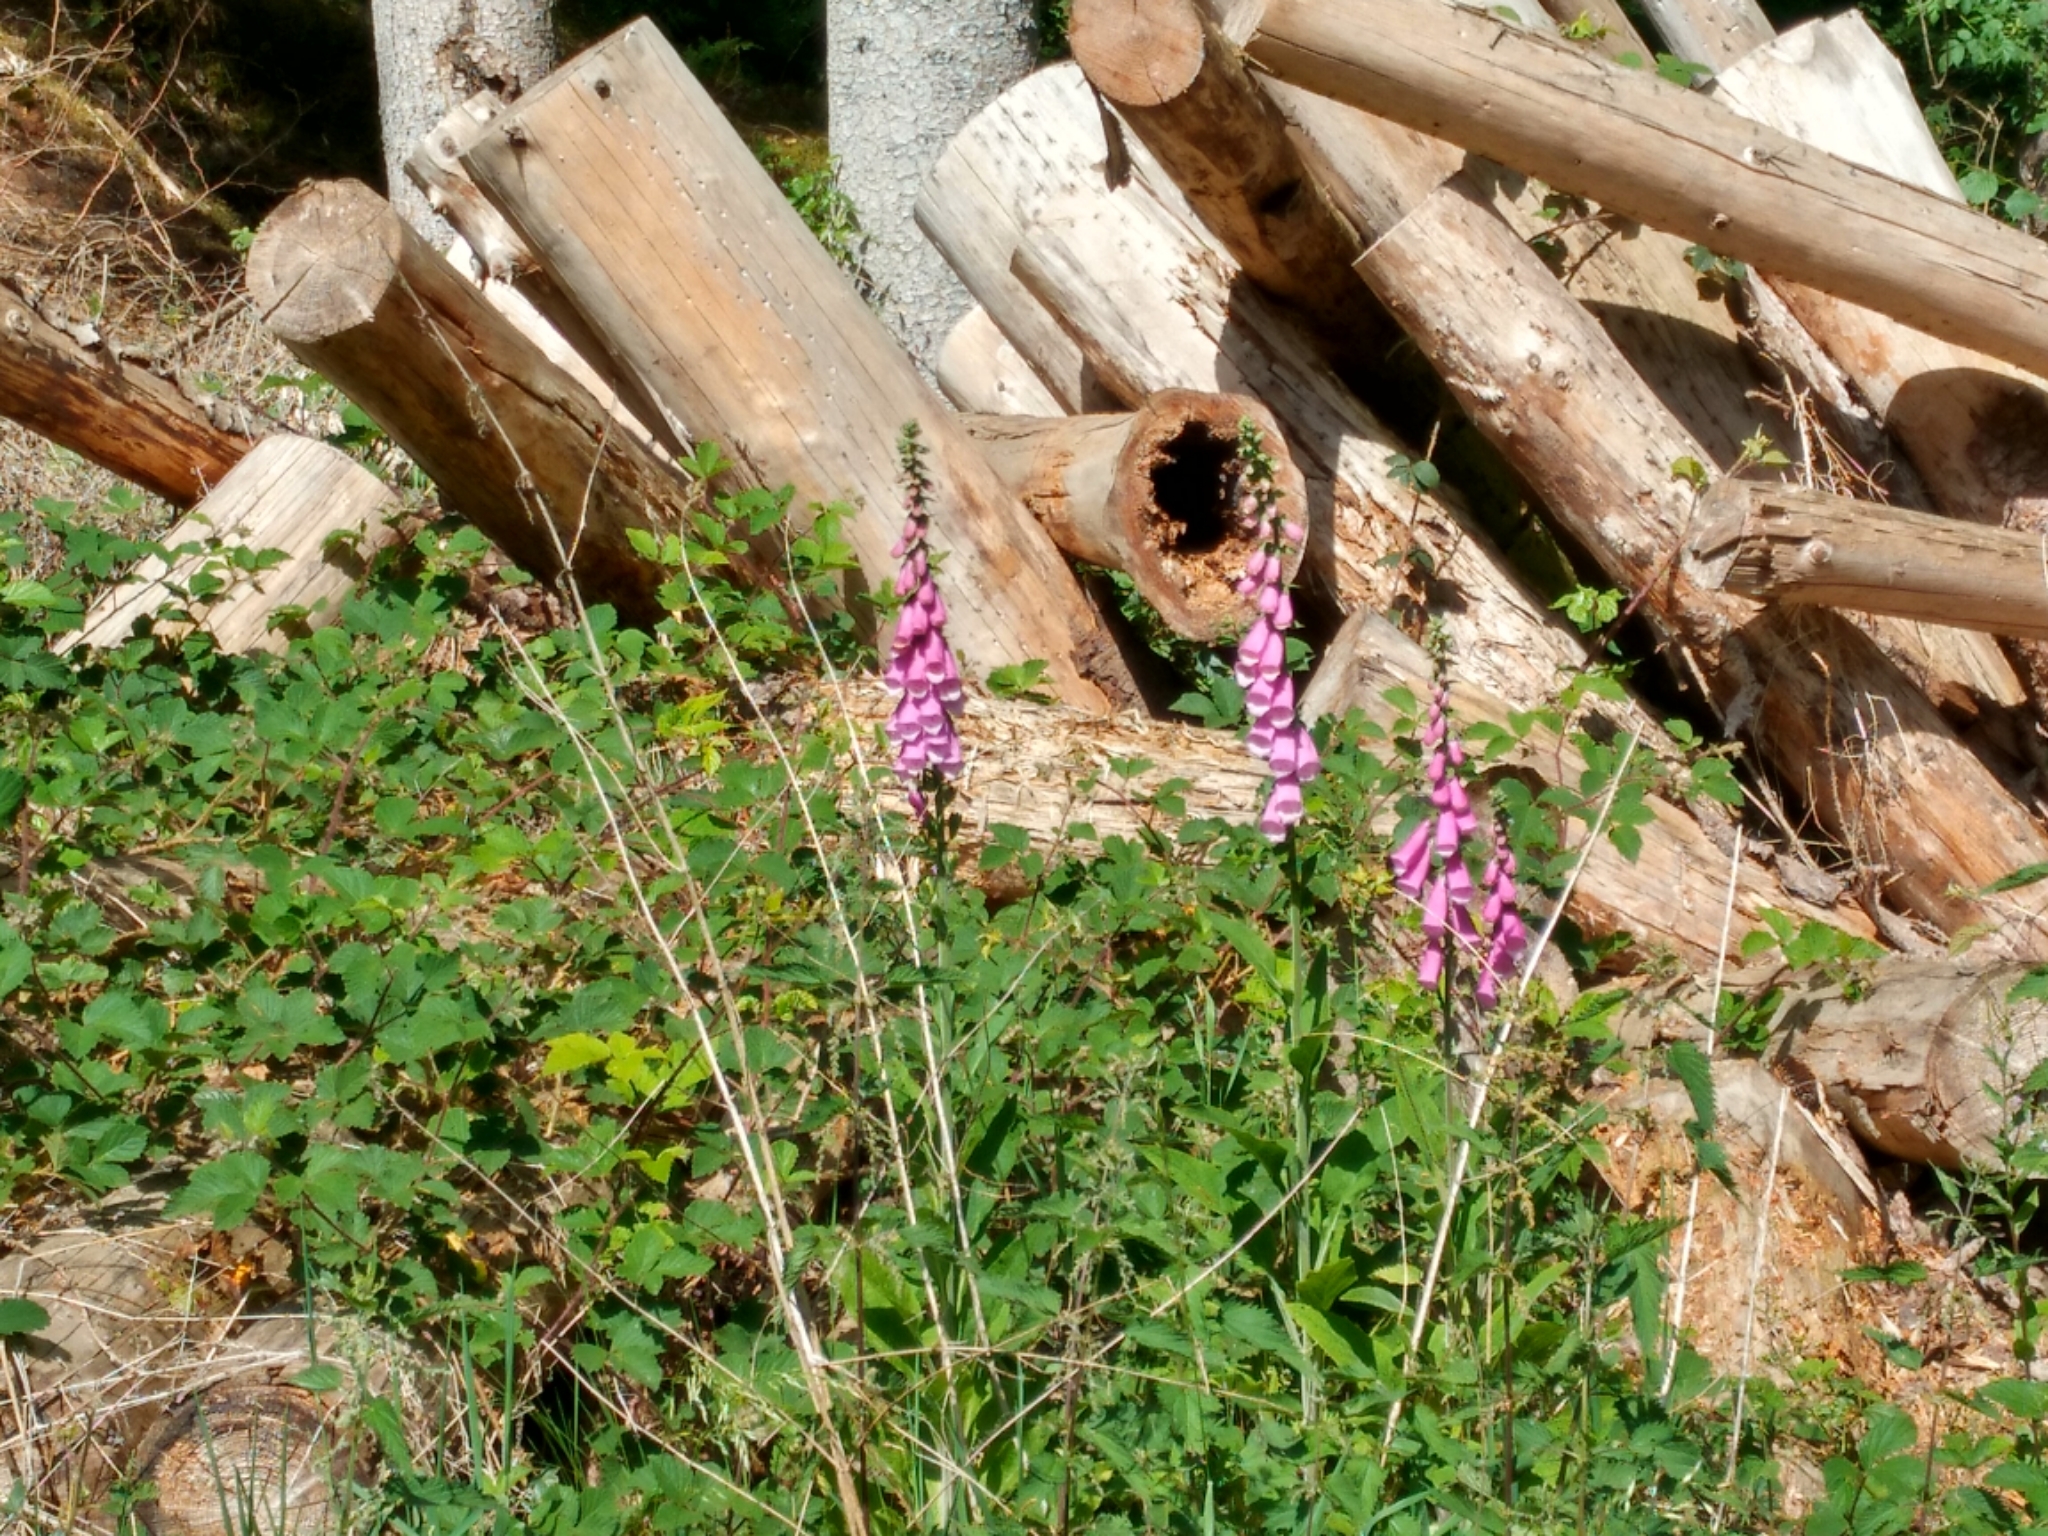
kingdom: Plantae
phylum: Tracheophyta
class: Magnoliopsida
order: Lamiales
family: Plantaginaceae
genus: Digitalis
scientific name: Digitalis purpurea
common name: Foxglove
